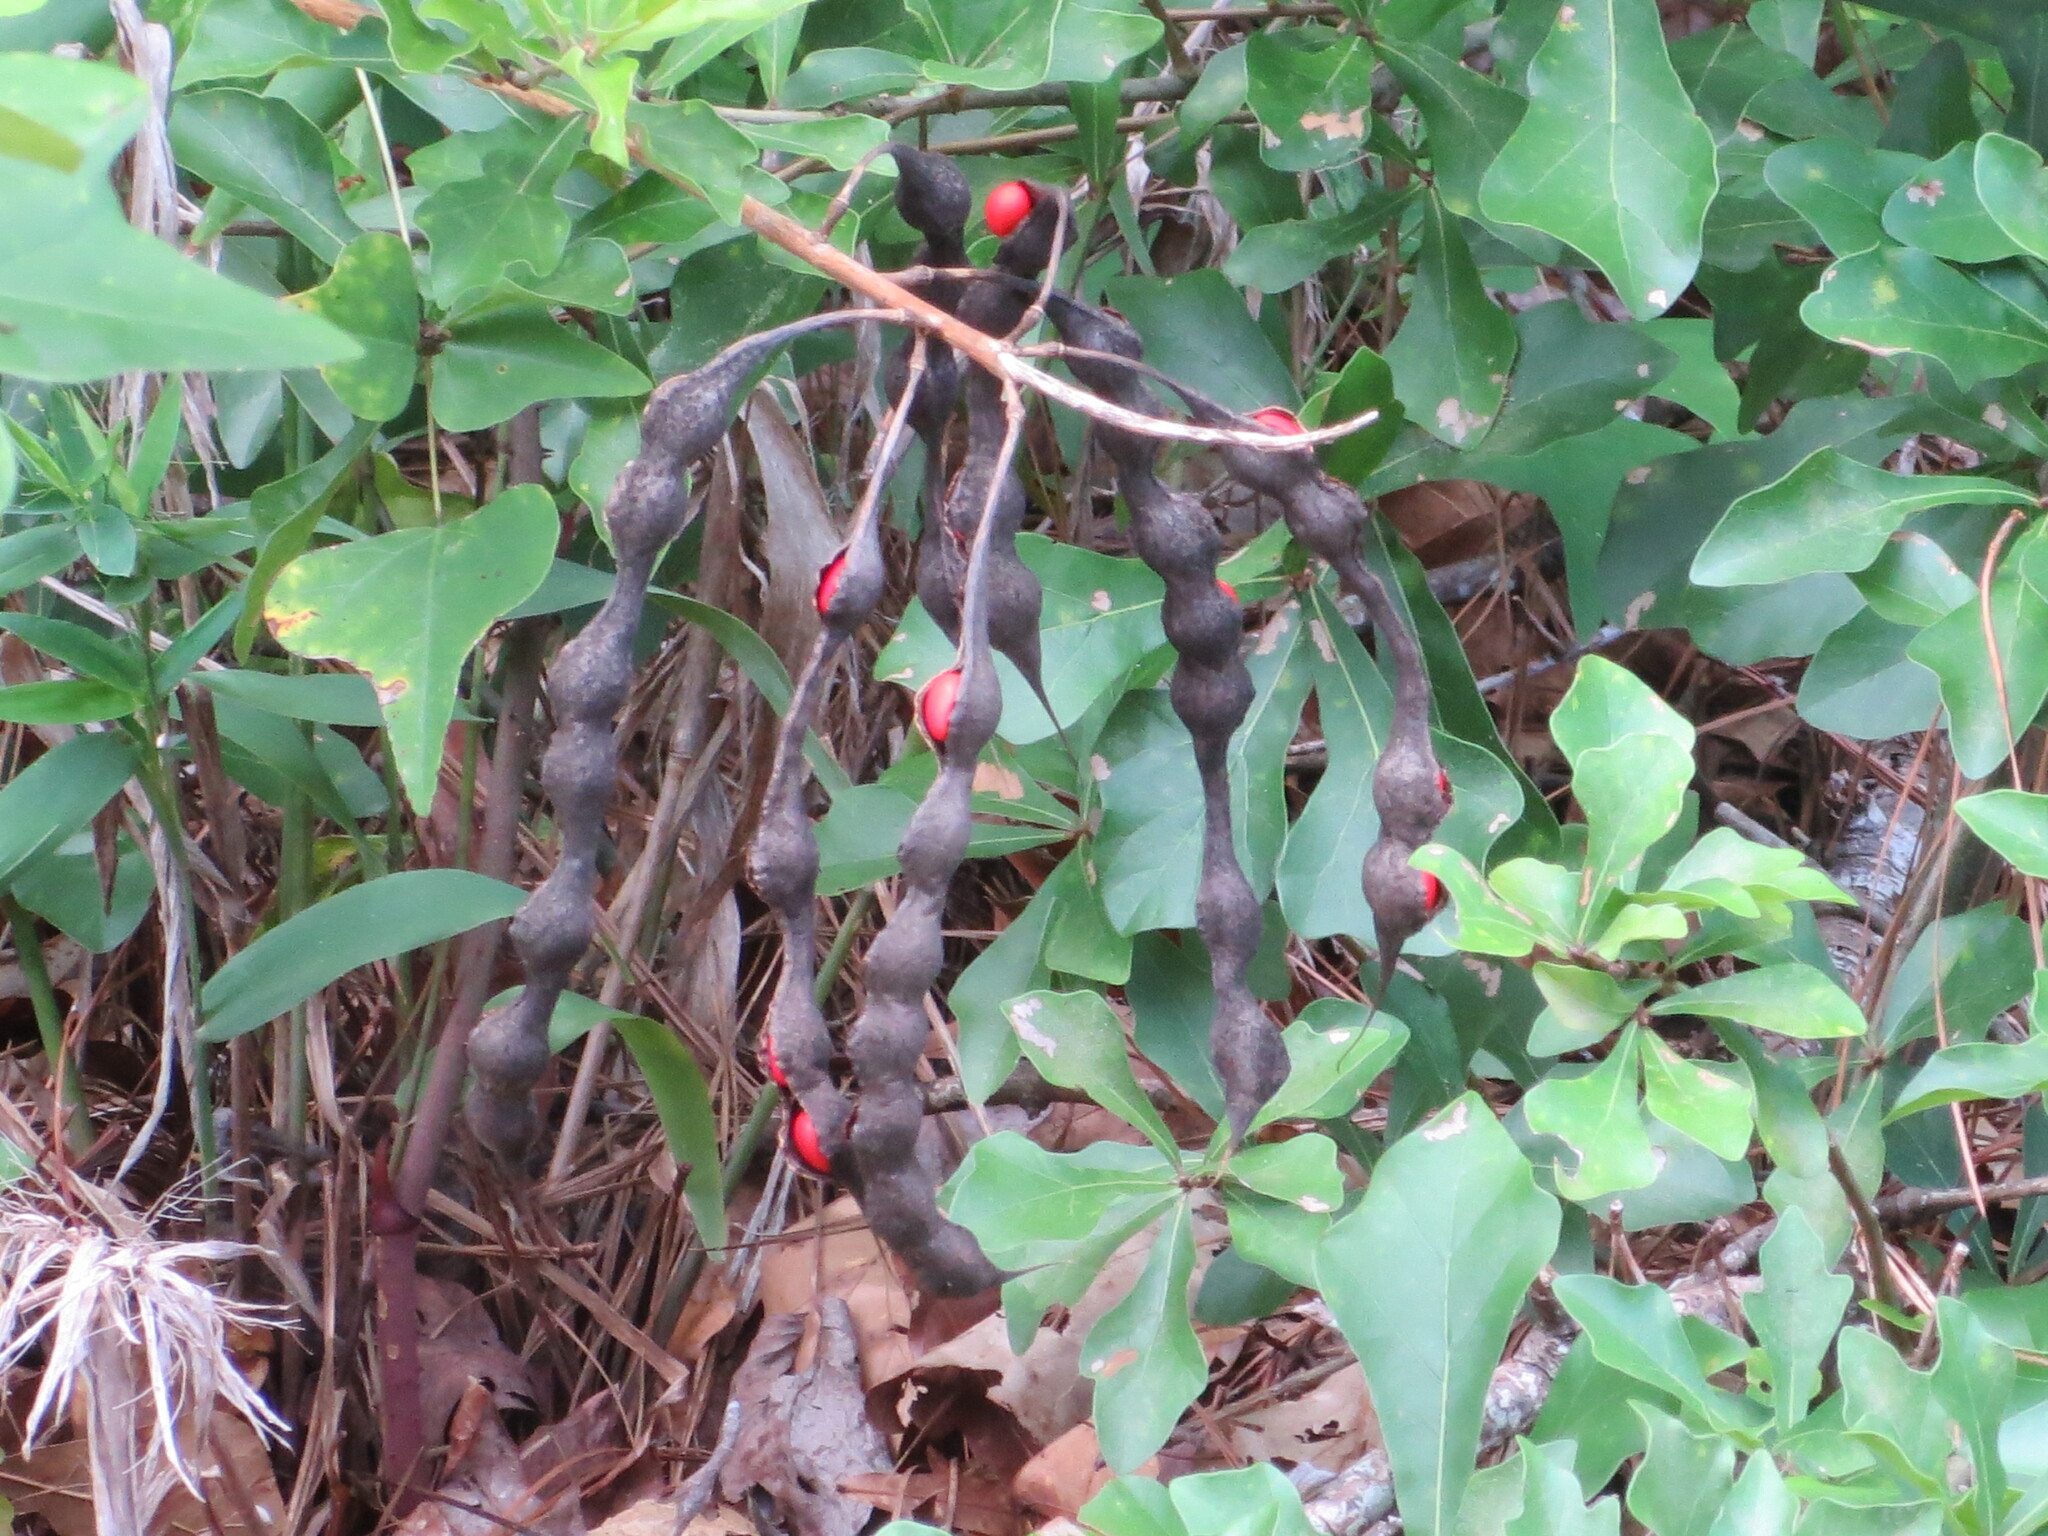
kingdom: Plantae
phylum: Tracheophyta
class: Magnoliopsida
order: Fabales
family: Fabaceae
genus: Erythrina
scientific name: Erythrina herbacea
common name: Coral-bean
